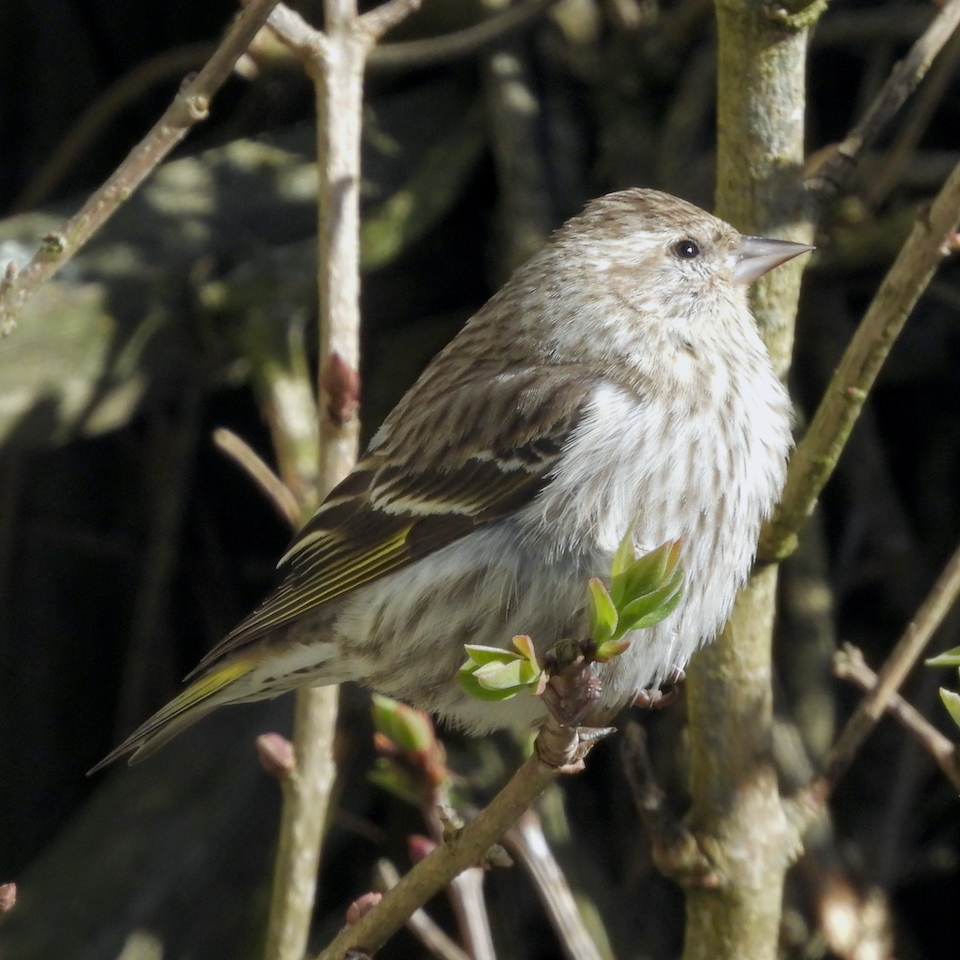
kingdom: Animalia
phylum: Chordata
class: Aves
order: Passeriformes
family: Fringillidae
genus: Spinus
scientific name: Spinus pinus
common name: Pine siskin
